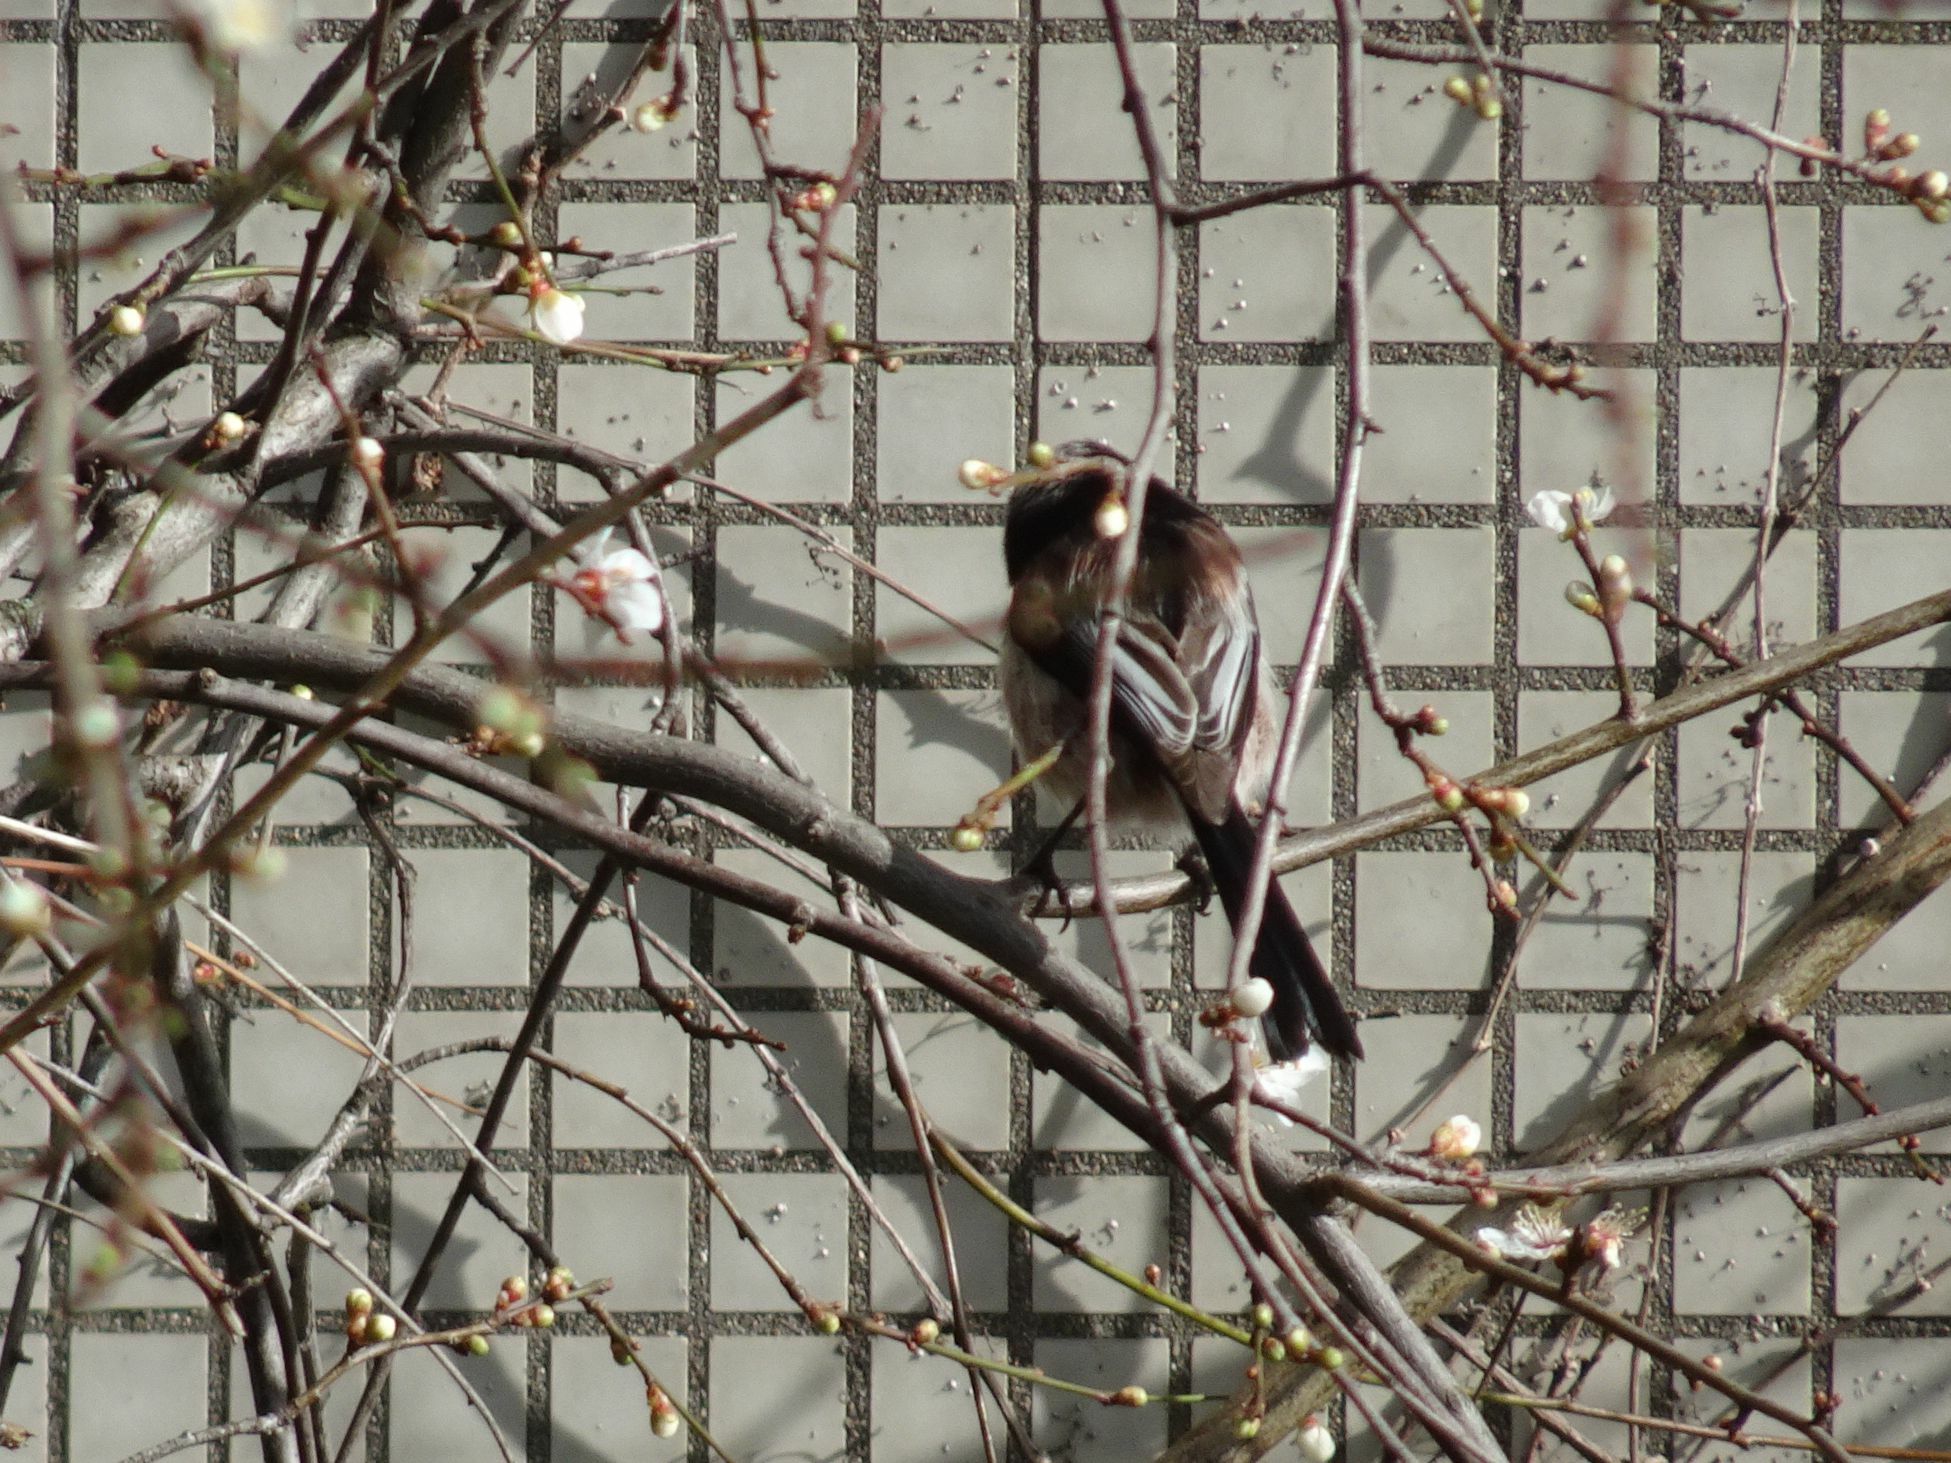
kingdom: Animalia
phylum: Chordata
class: Aves
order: Passeriformes
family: Aegithalidae
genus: Aegithalos
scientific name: Aegithalos caudatus
